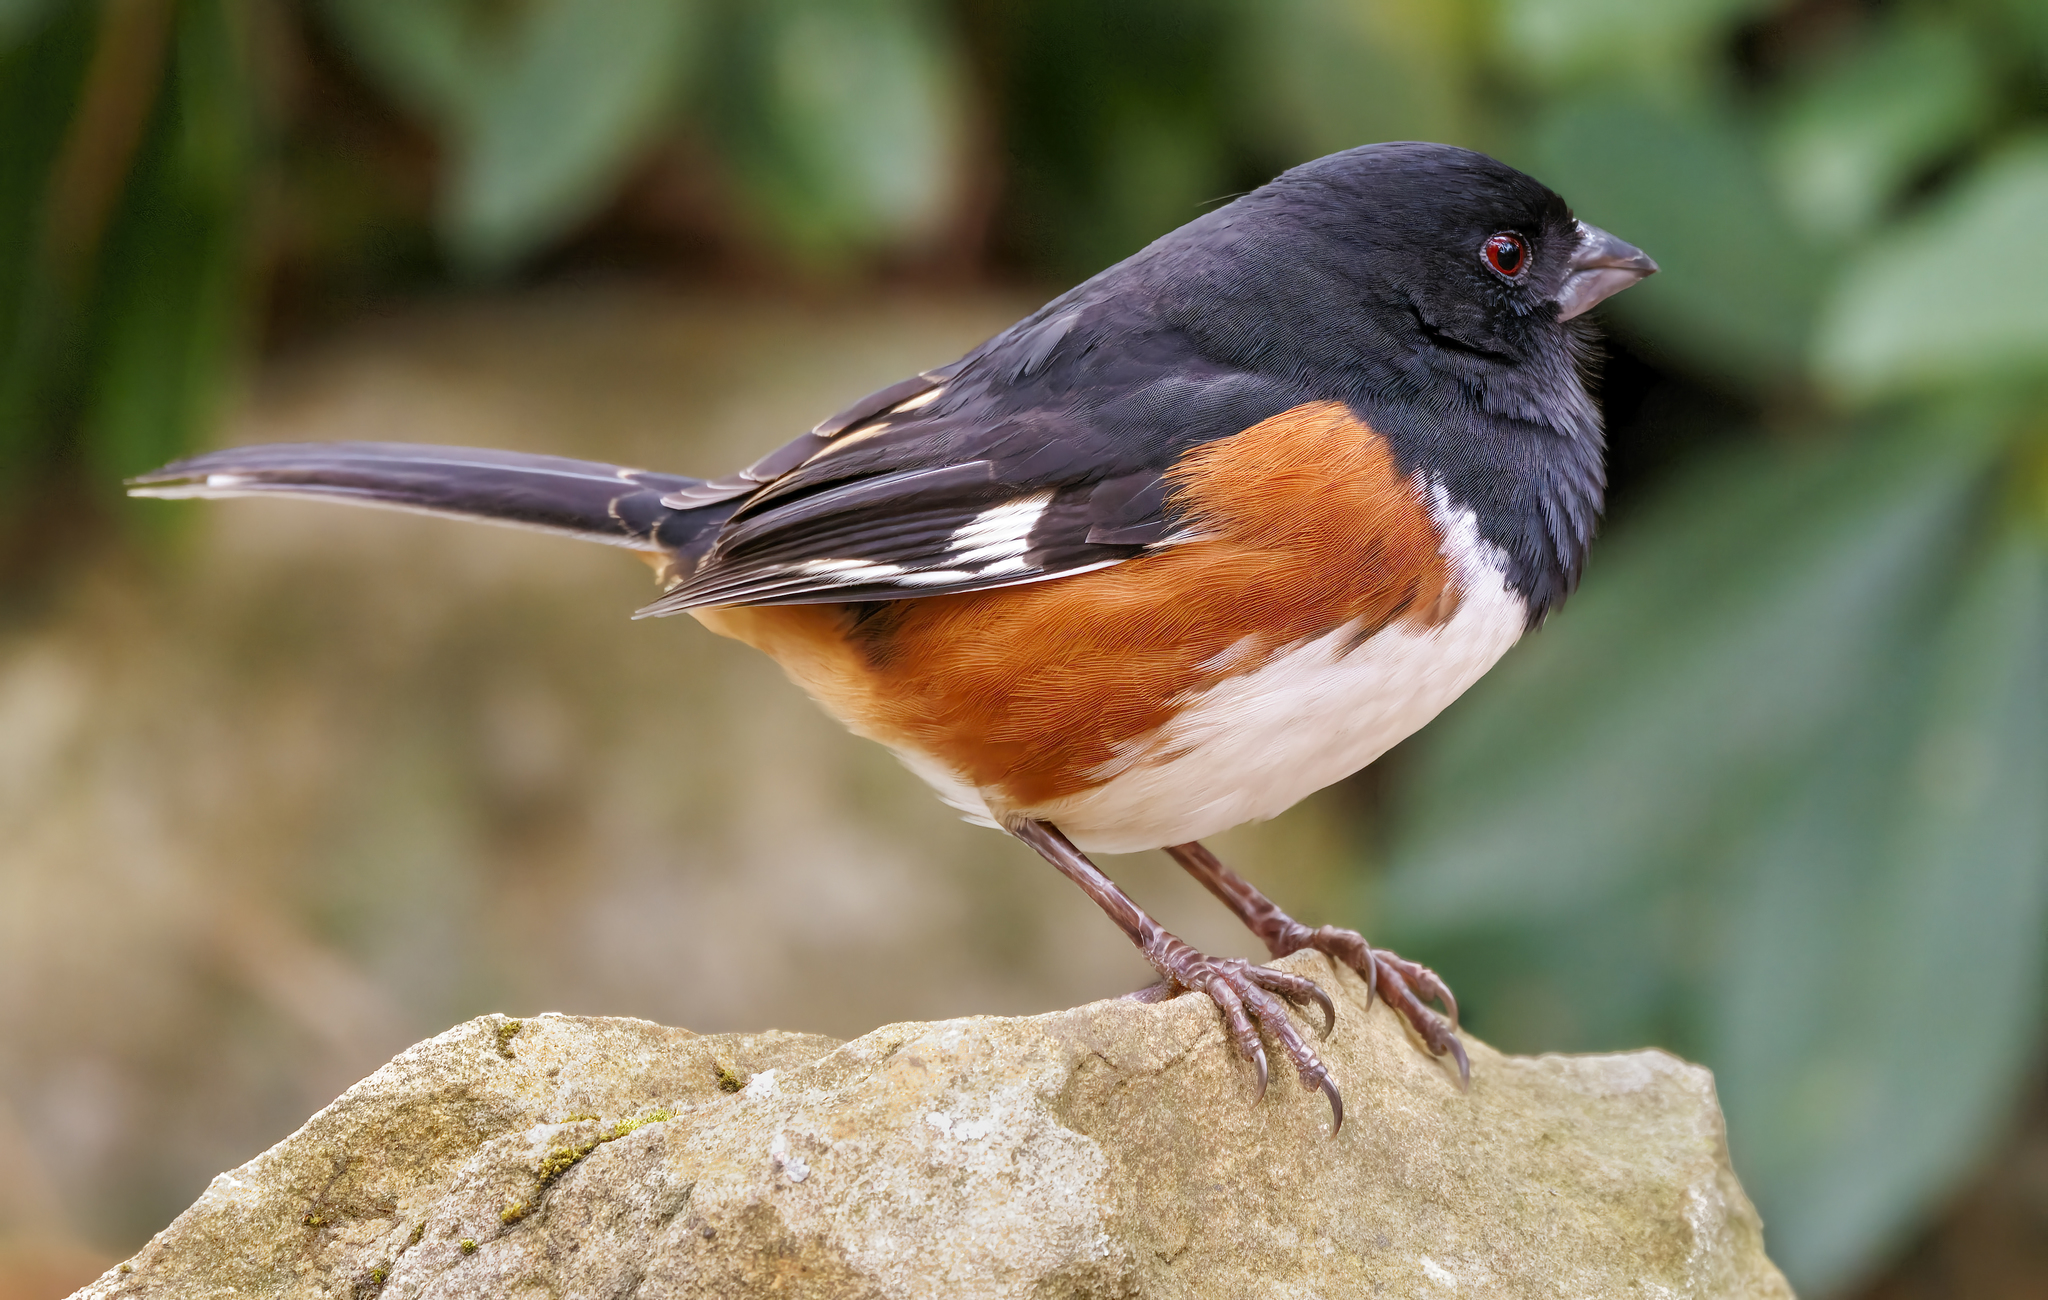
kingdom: Animalia
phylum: Chordata
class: Aves
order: Passeriformes
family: Passerellidae
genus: Pipilo
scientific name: Pipilo erythrophthalmus
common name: Eastern towhee
